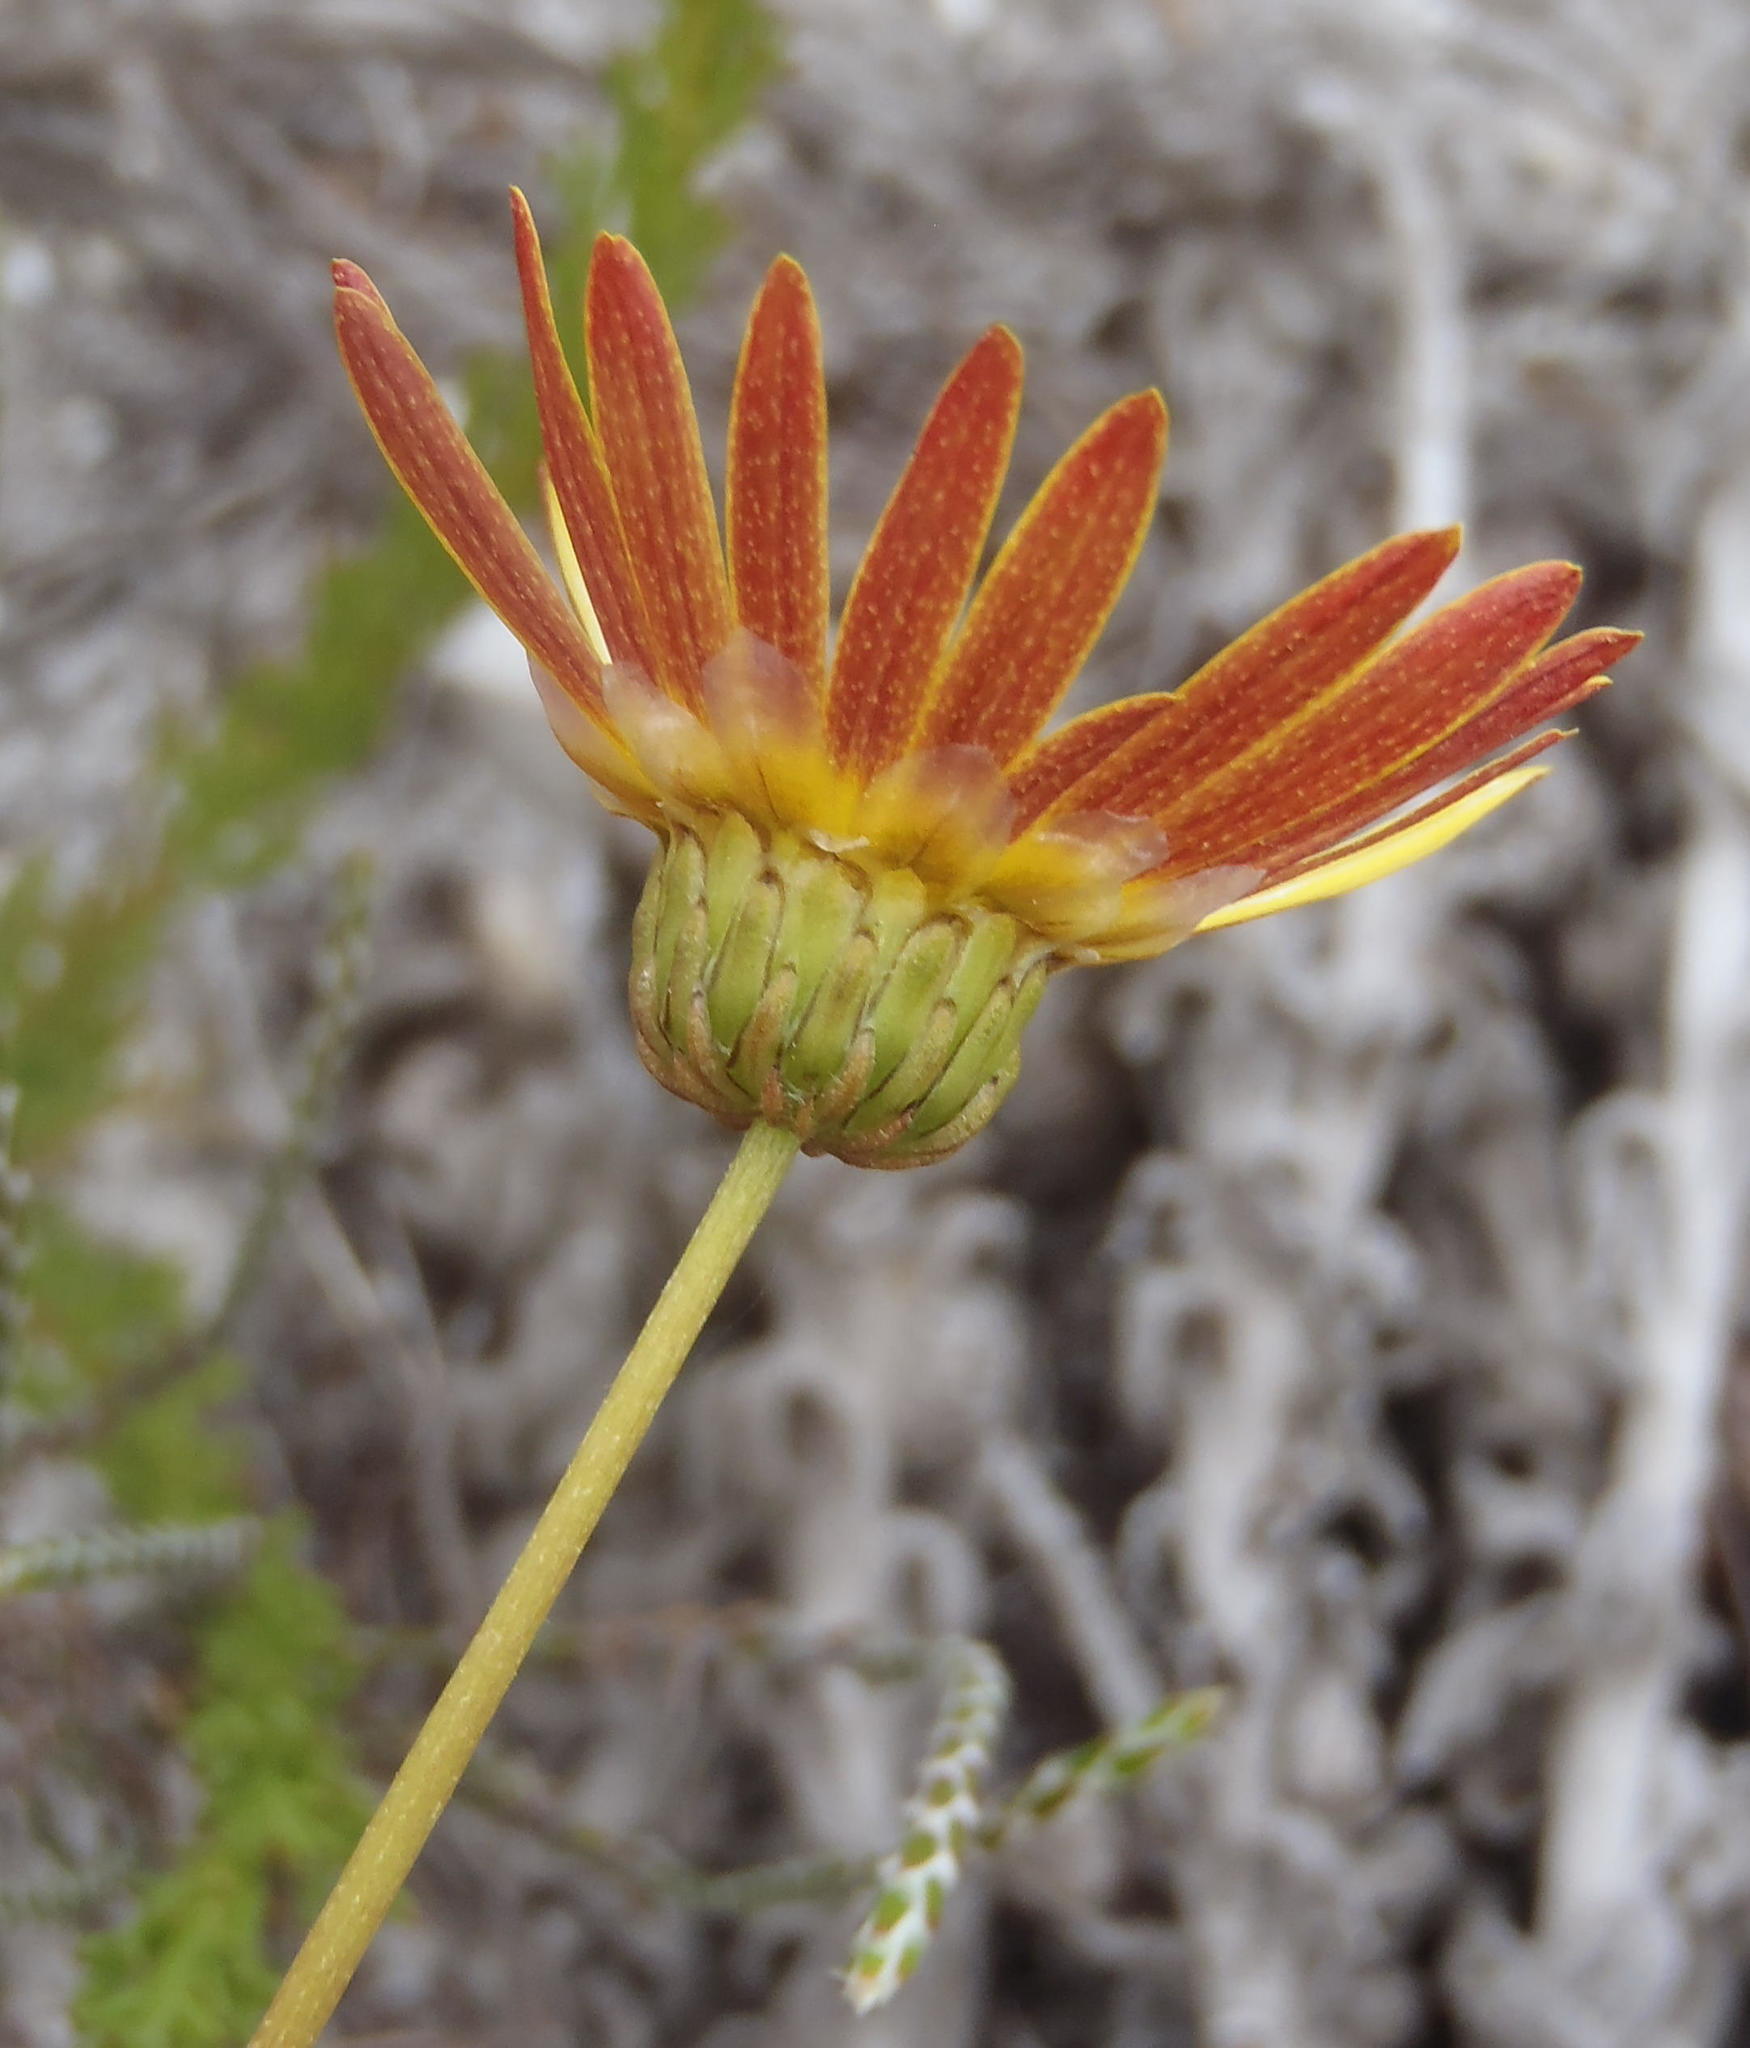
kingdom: Plantae
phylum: Tracheophyta
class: Magnoliopsida
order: Asterales
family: Asteraceae
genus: Ursinia
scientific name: Ursinia paleacea
